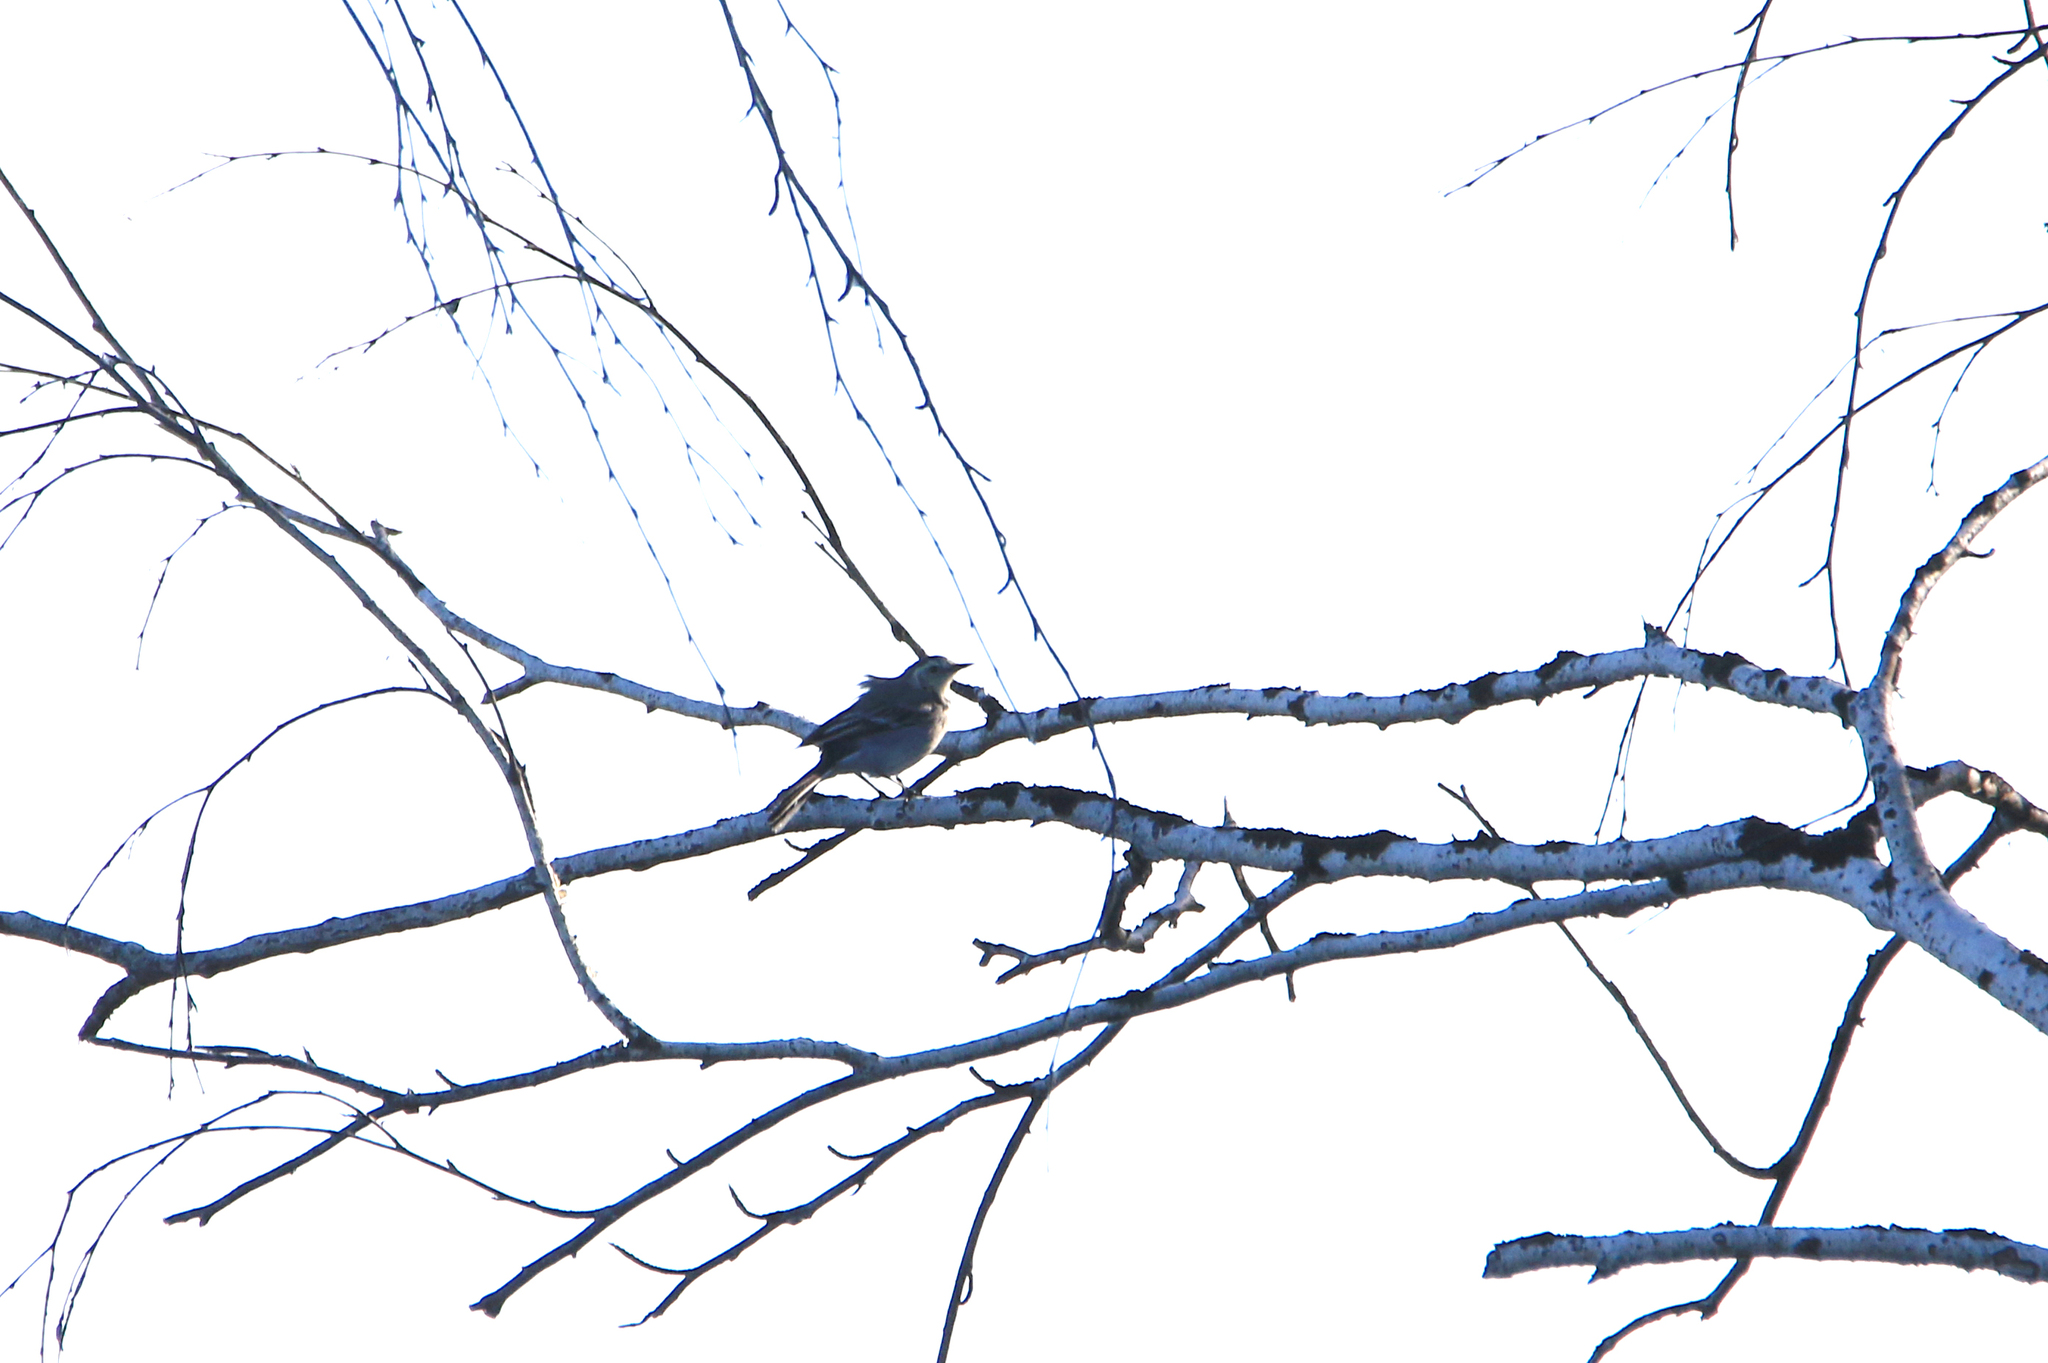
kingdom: Animalia
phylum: Chordata
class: Aves
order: Passeriformes
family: Motacillidae
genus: Motacilla
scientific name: Motacilla alba
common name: White wagtail
